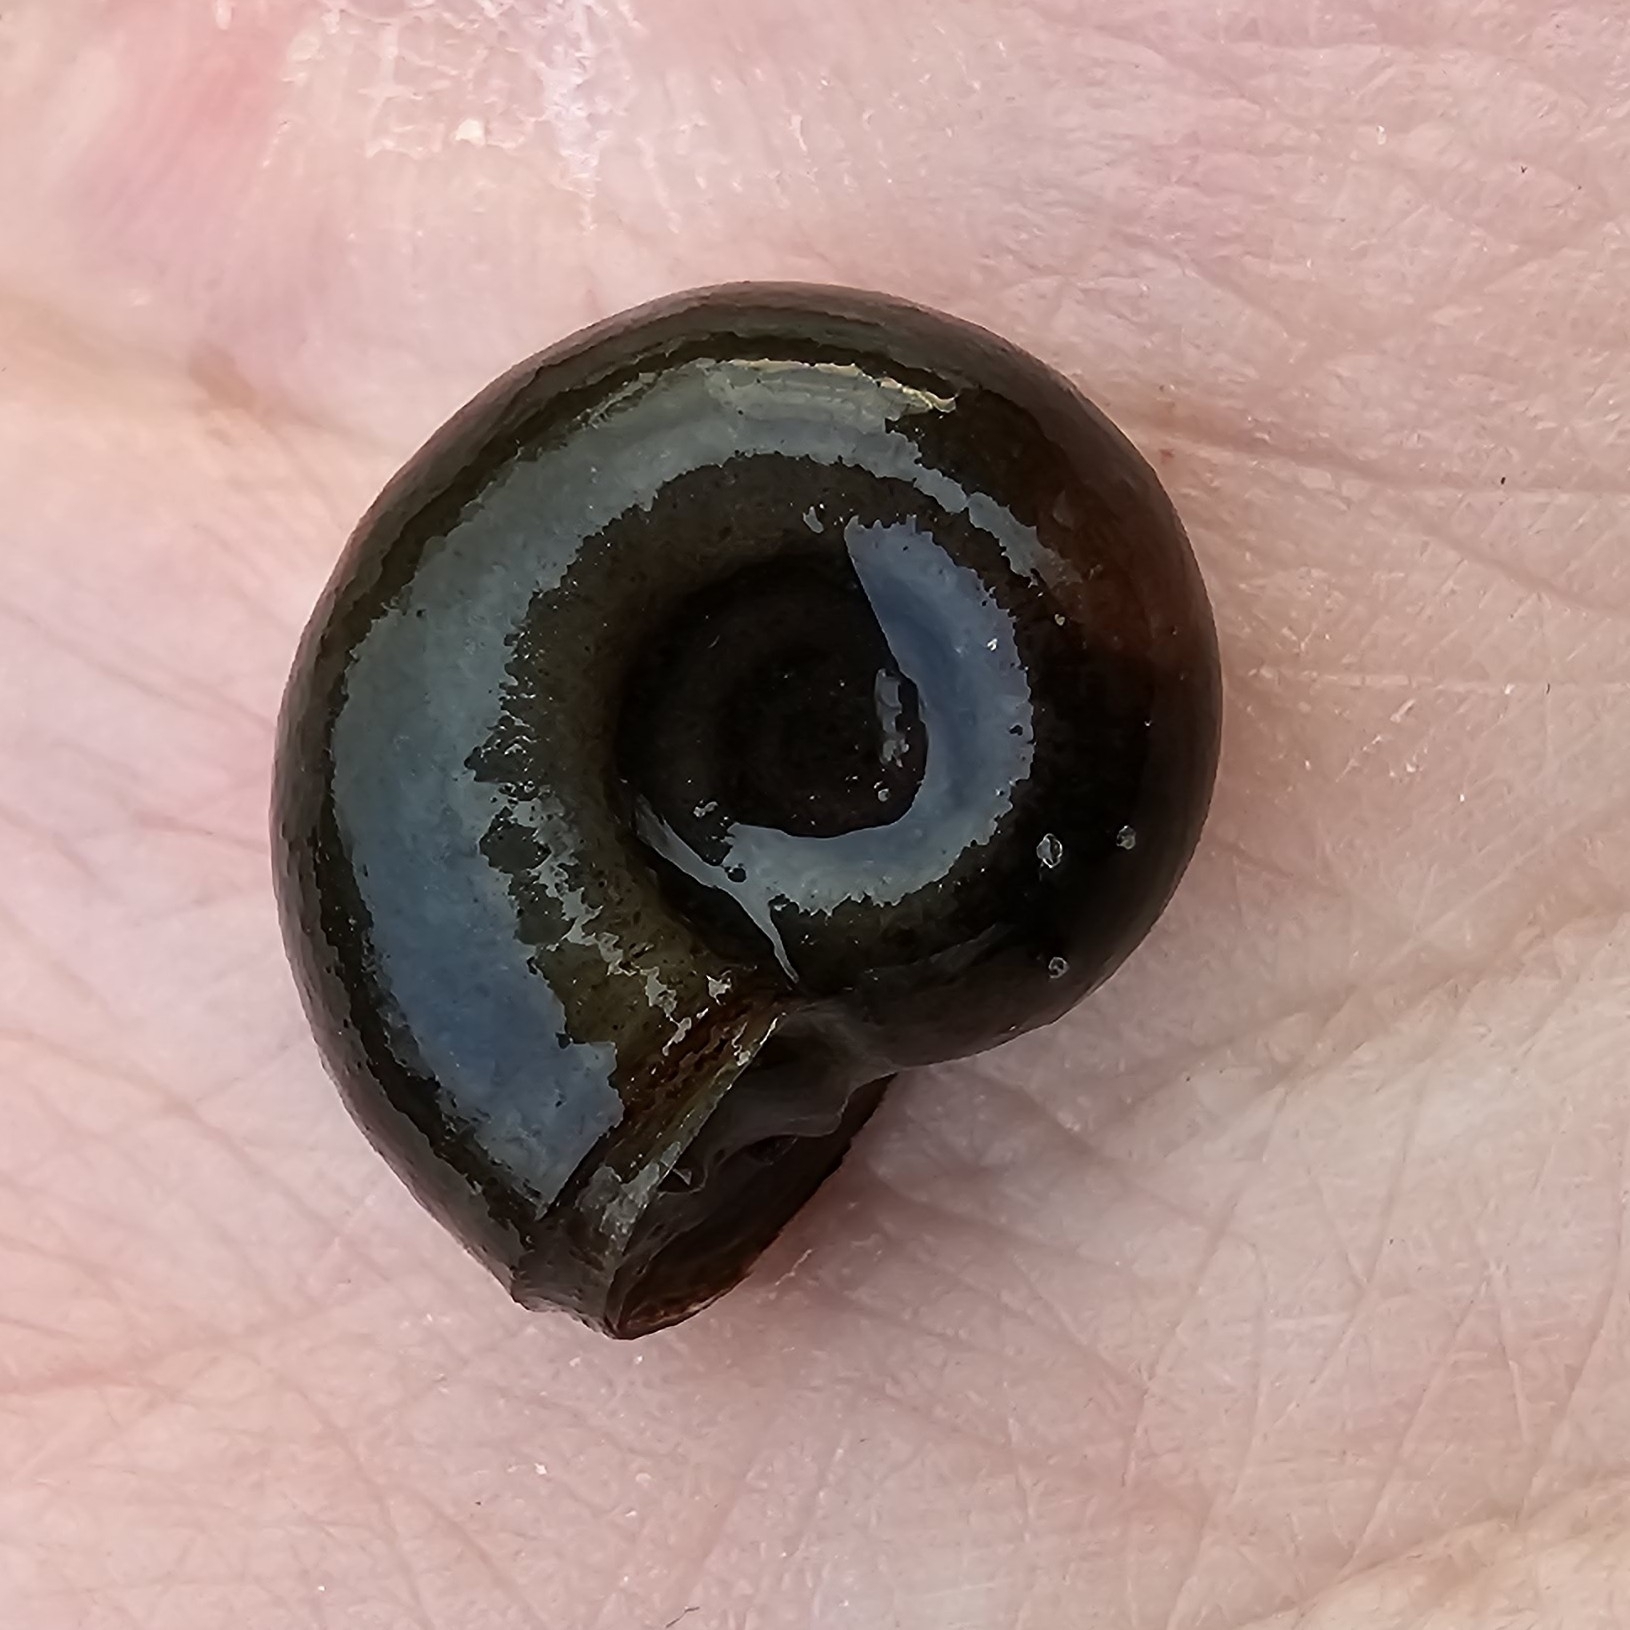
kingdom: Animalia
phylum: Mollusca
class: Gastropoda
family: Planorbidae
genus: Planorbarius
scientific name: Planorbarius corneus
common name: Great ramshorn
